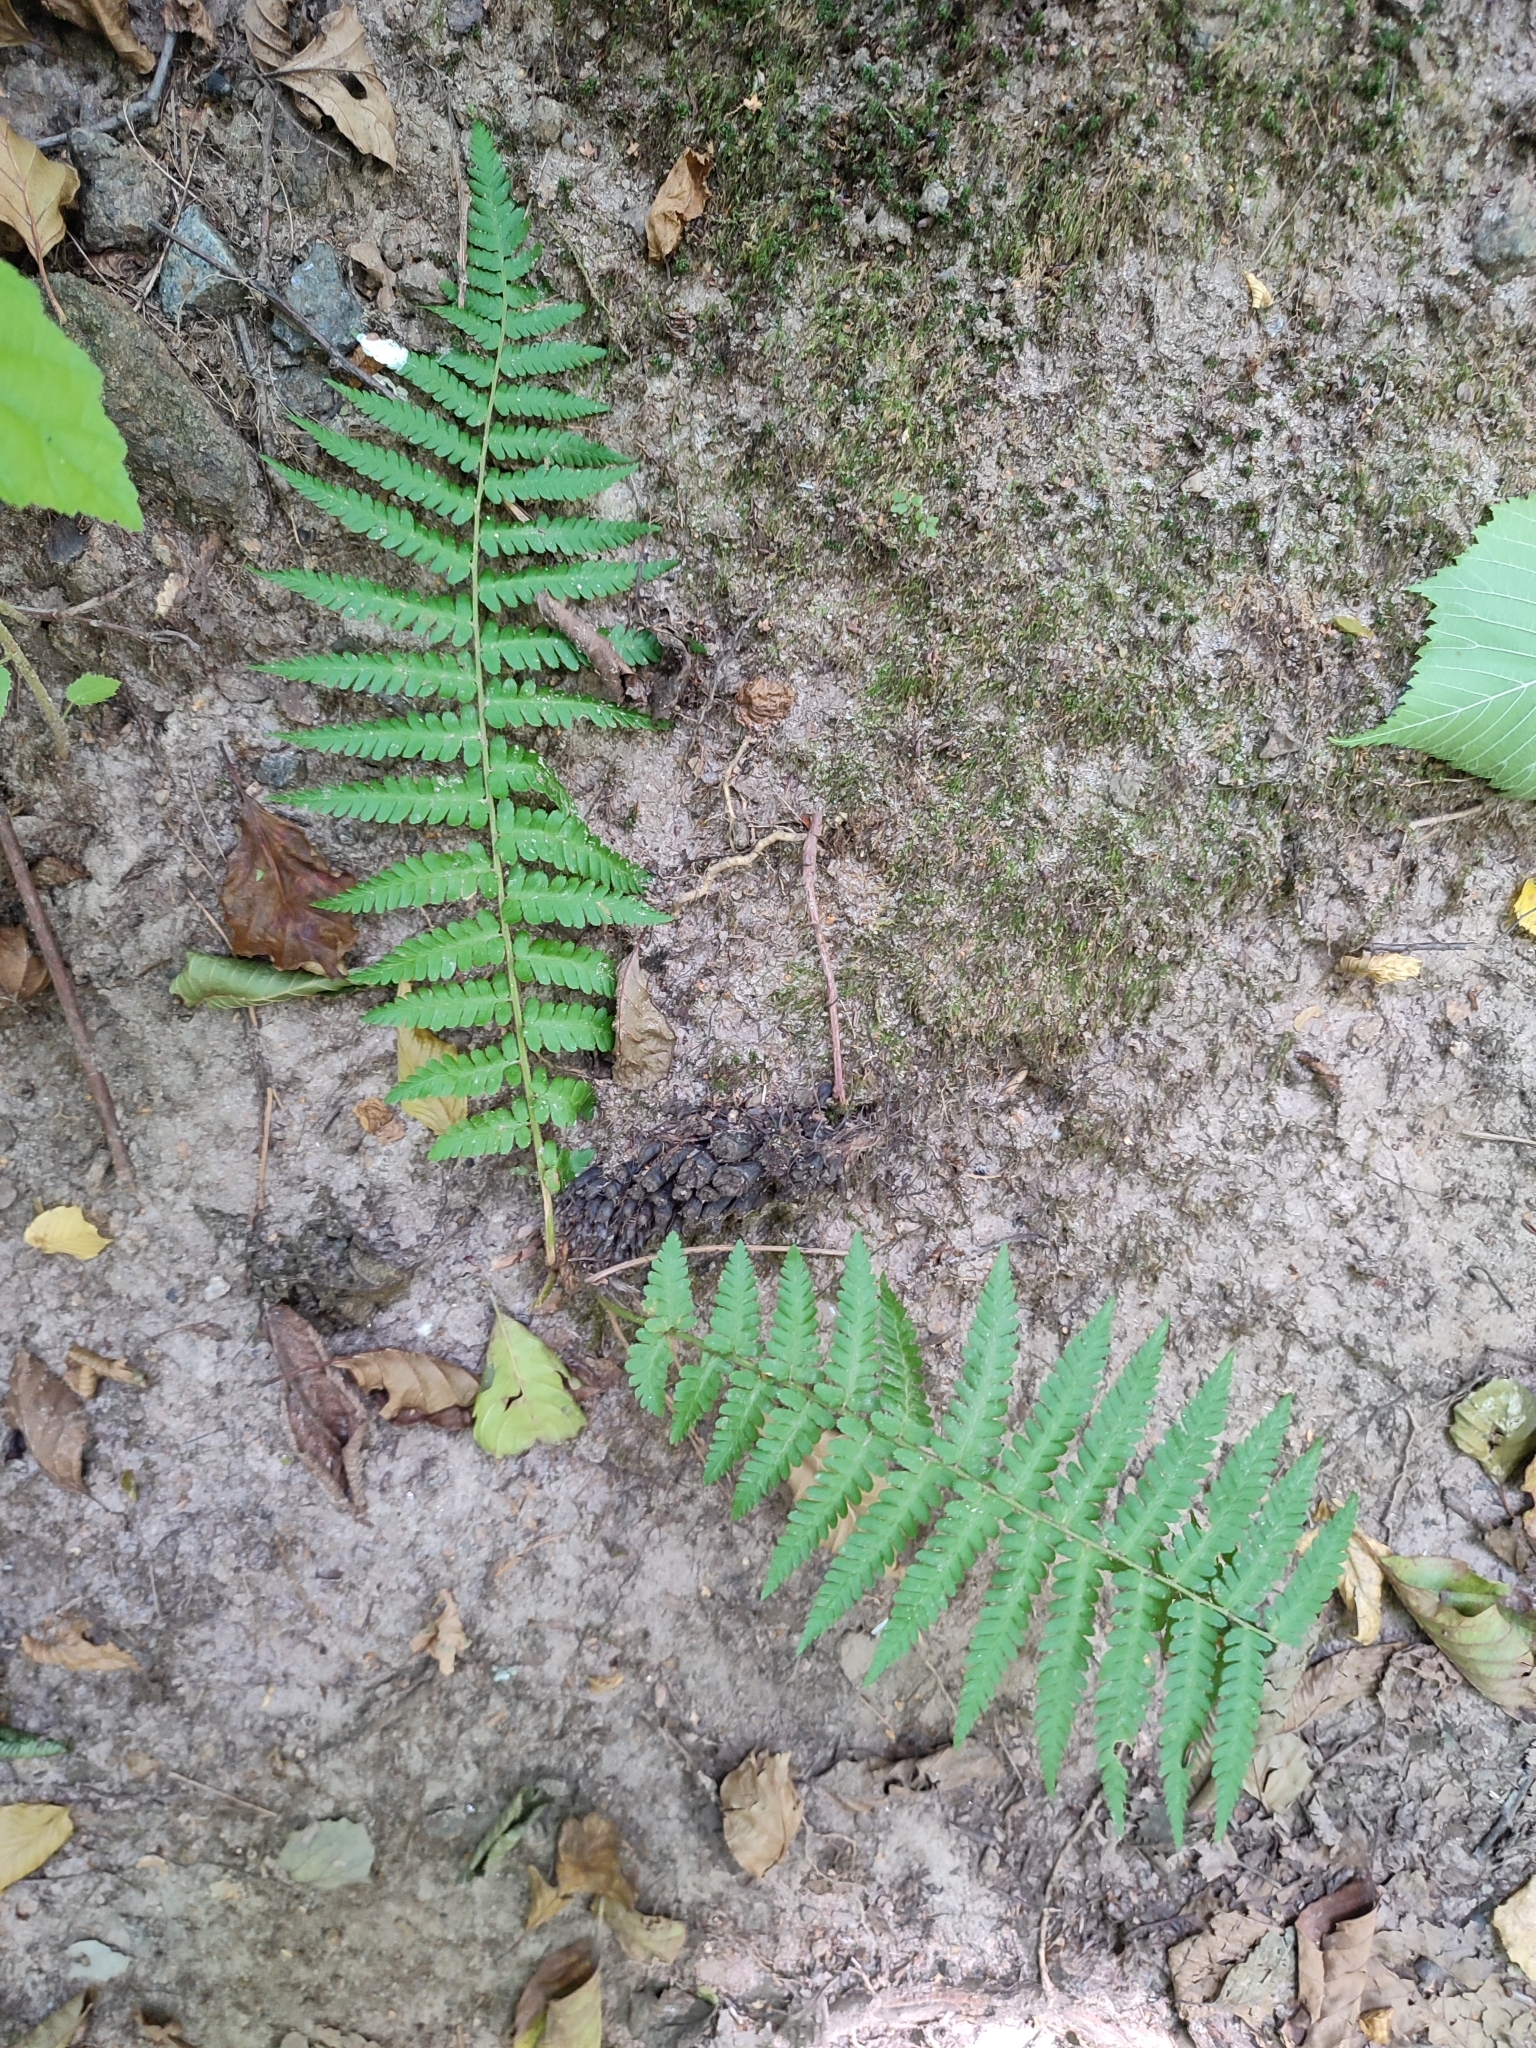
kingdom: Plantae
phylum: Tracheophyta
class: Polypodiopsida
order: Polypodiales
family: Dryopteridaceae
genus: Dryopteris
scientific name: Dryopteris filix-mas
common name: Male fern
